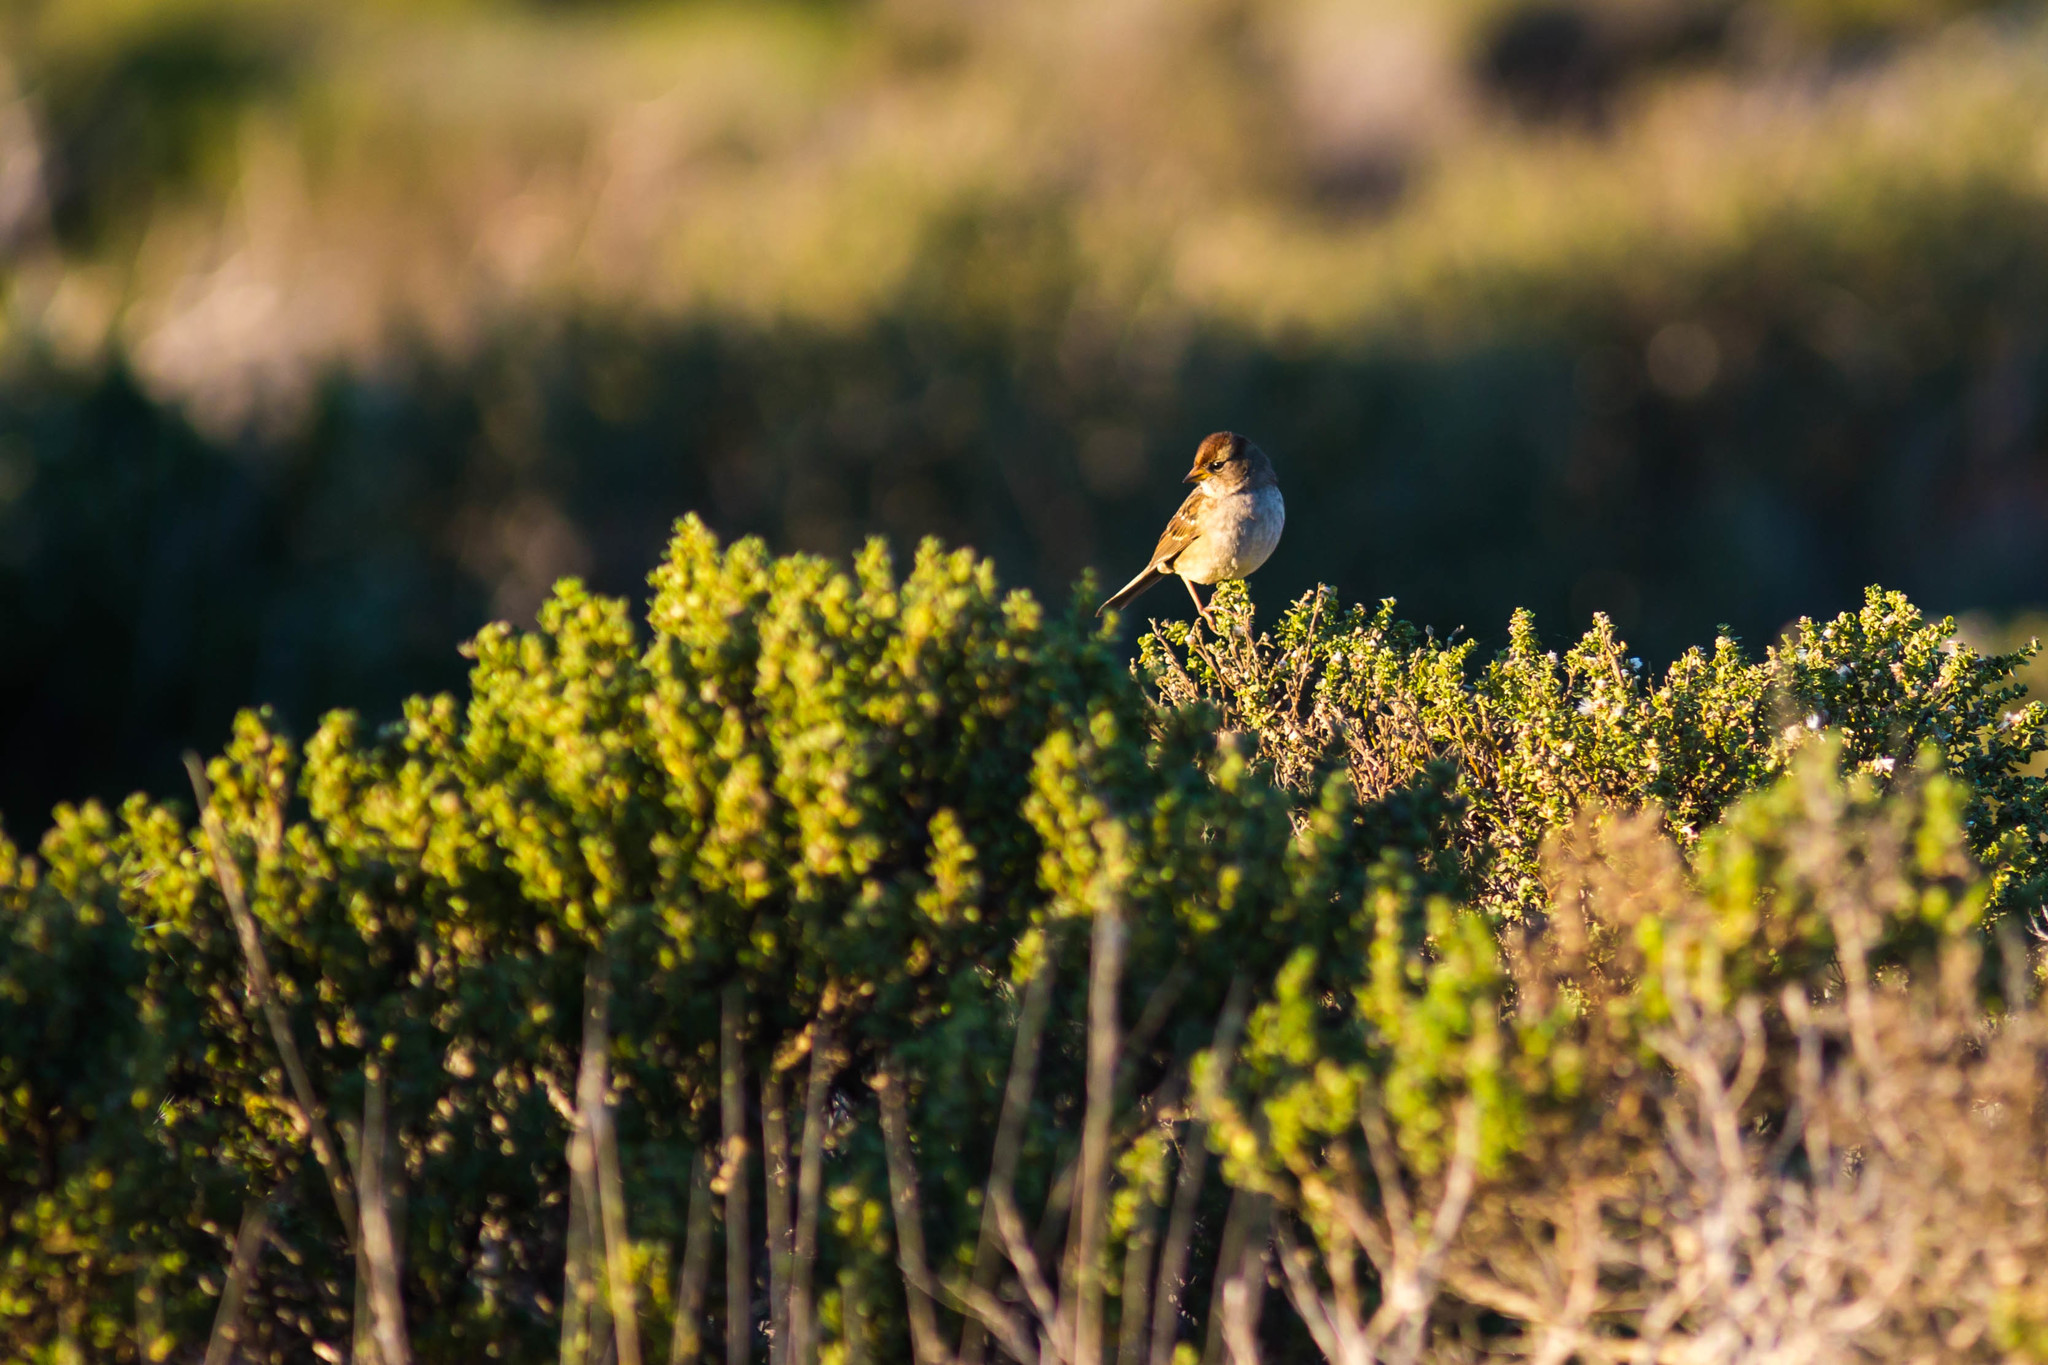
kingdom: Animalia
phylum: Chordata
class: Aves
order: Passeriformes
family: Passerellidae
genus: Zonotrichia
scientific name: Zonotrichia leucophrys
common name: White-crowned sparrow
